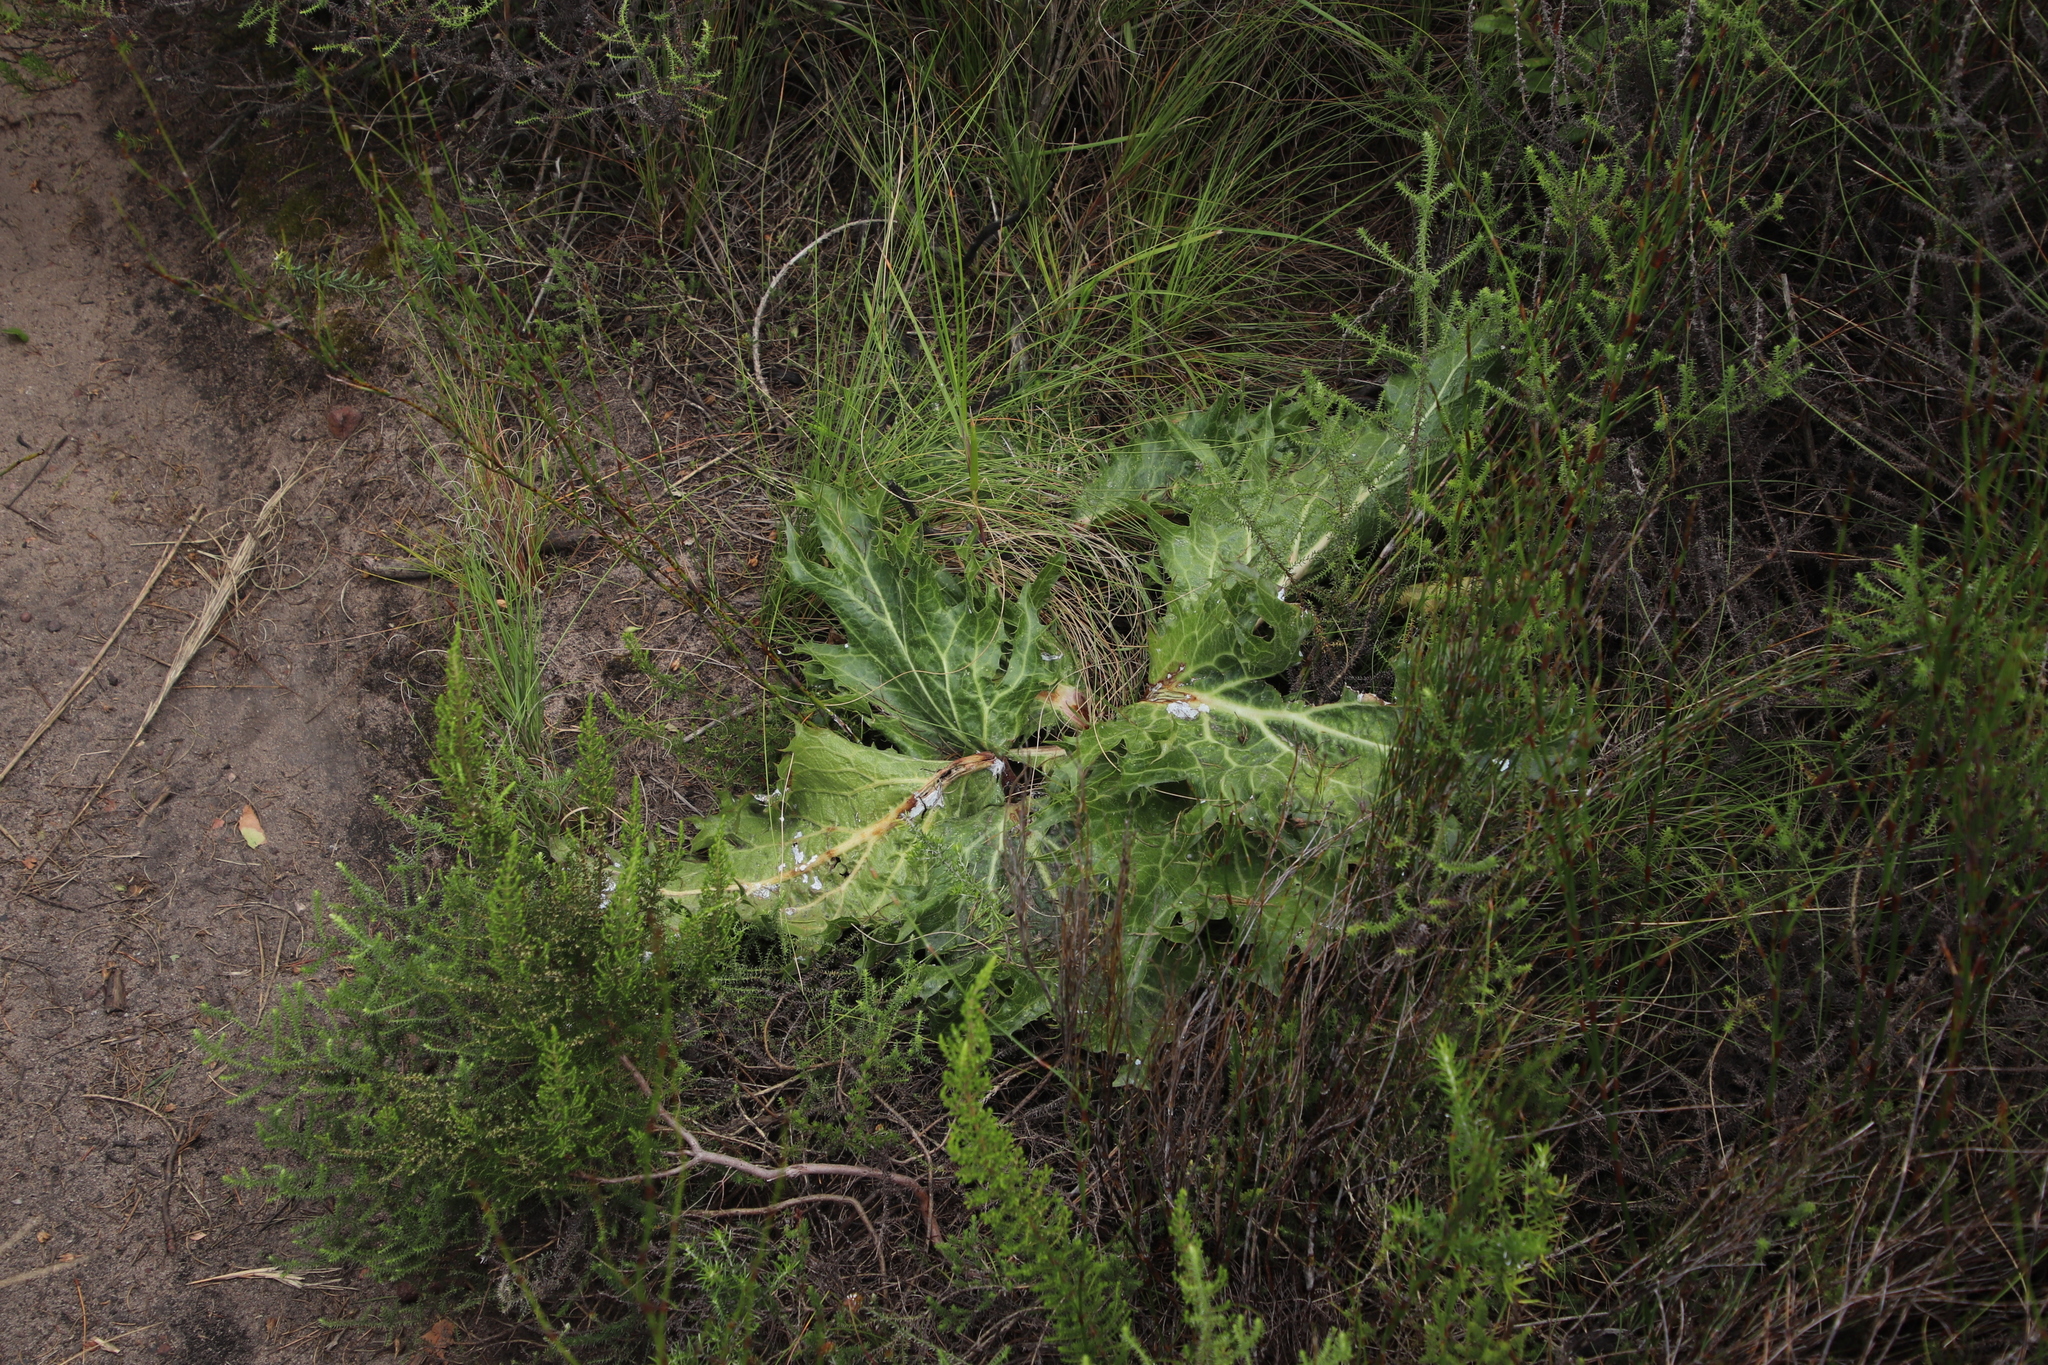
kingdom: Plantae
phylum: Tracheophyta
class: Magnoliopsida
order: Apiales
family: Apiaceae
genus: Lichtensteinia
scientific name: Lichtensteinia lacera
